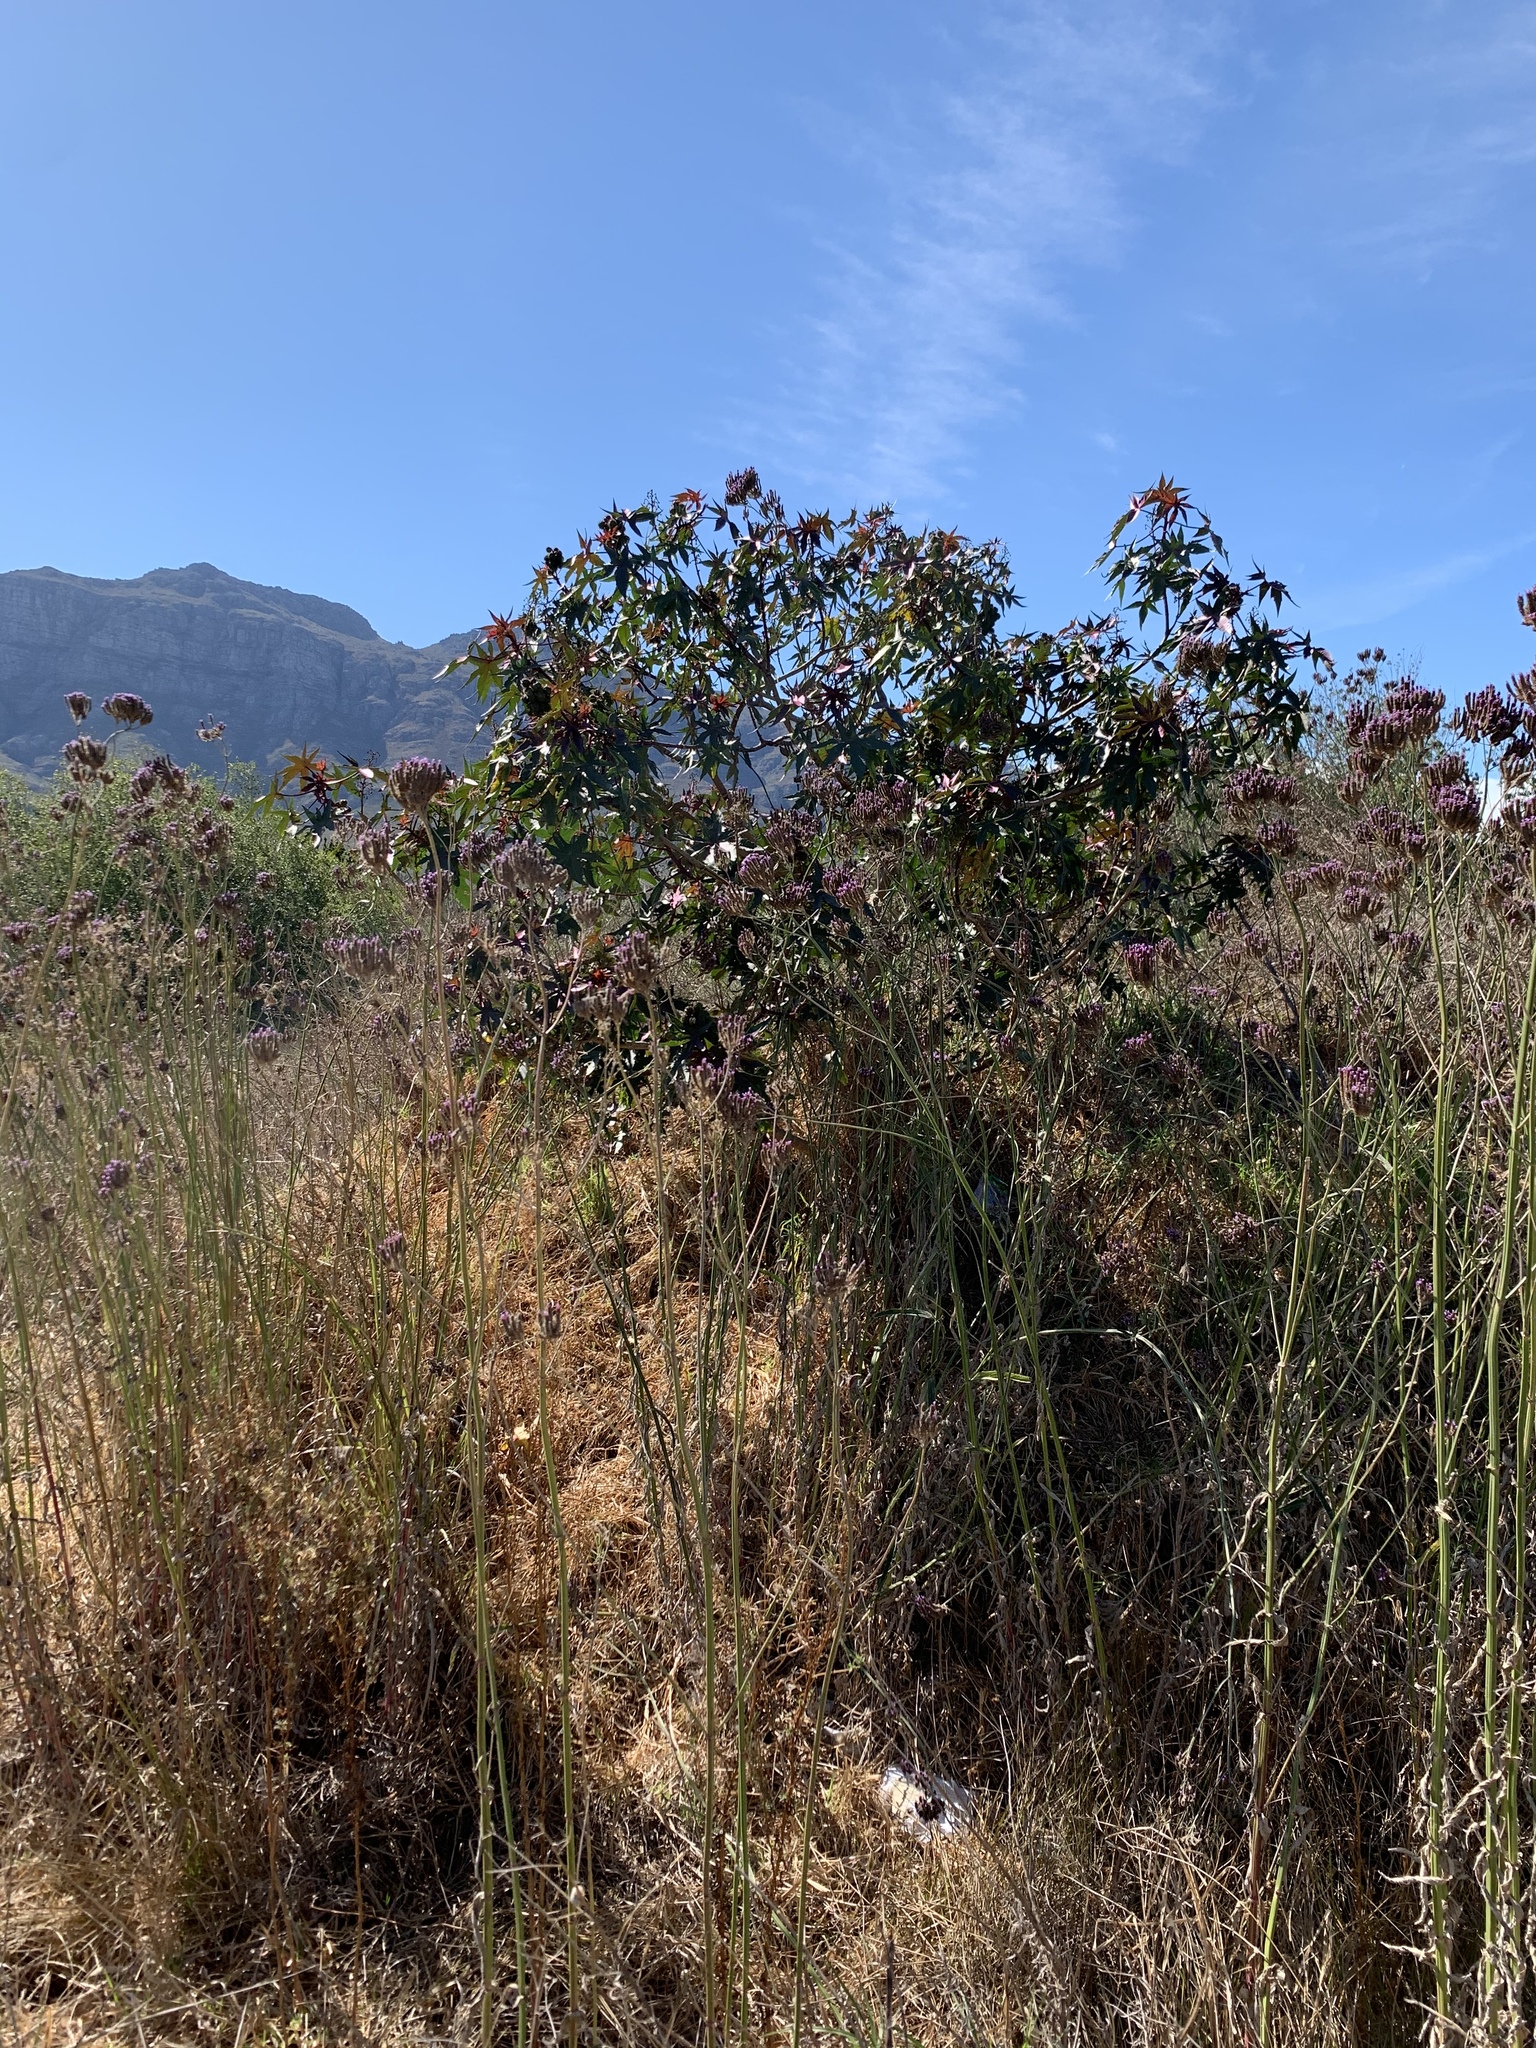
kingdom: Plantae
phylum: Tracheophyta
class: Magnoliopsida
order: Malpighiales
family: Euphorbiaceae
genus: Ricinus
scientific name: Ricinus communis
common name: Castor-oil-plant
